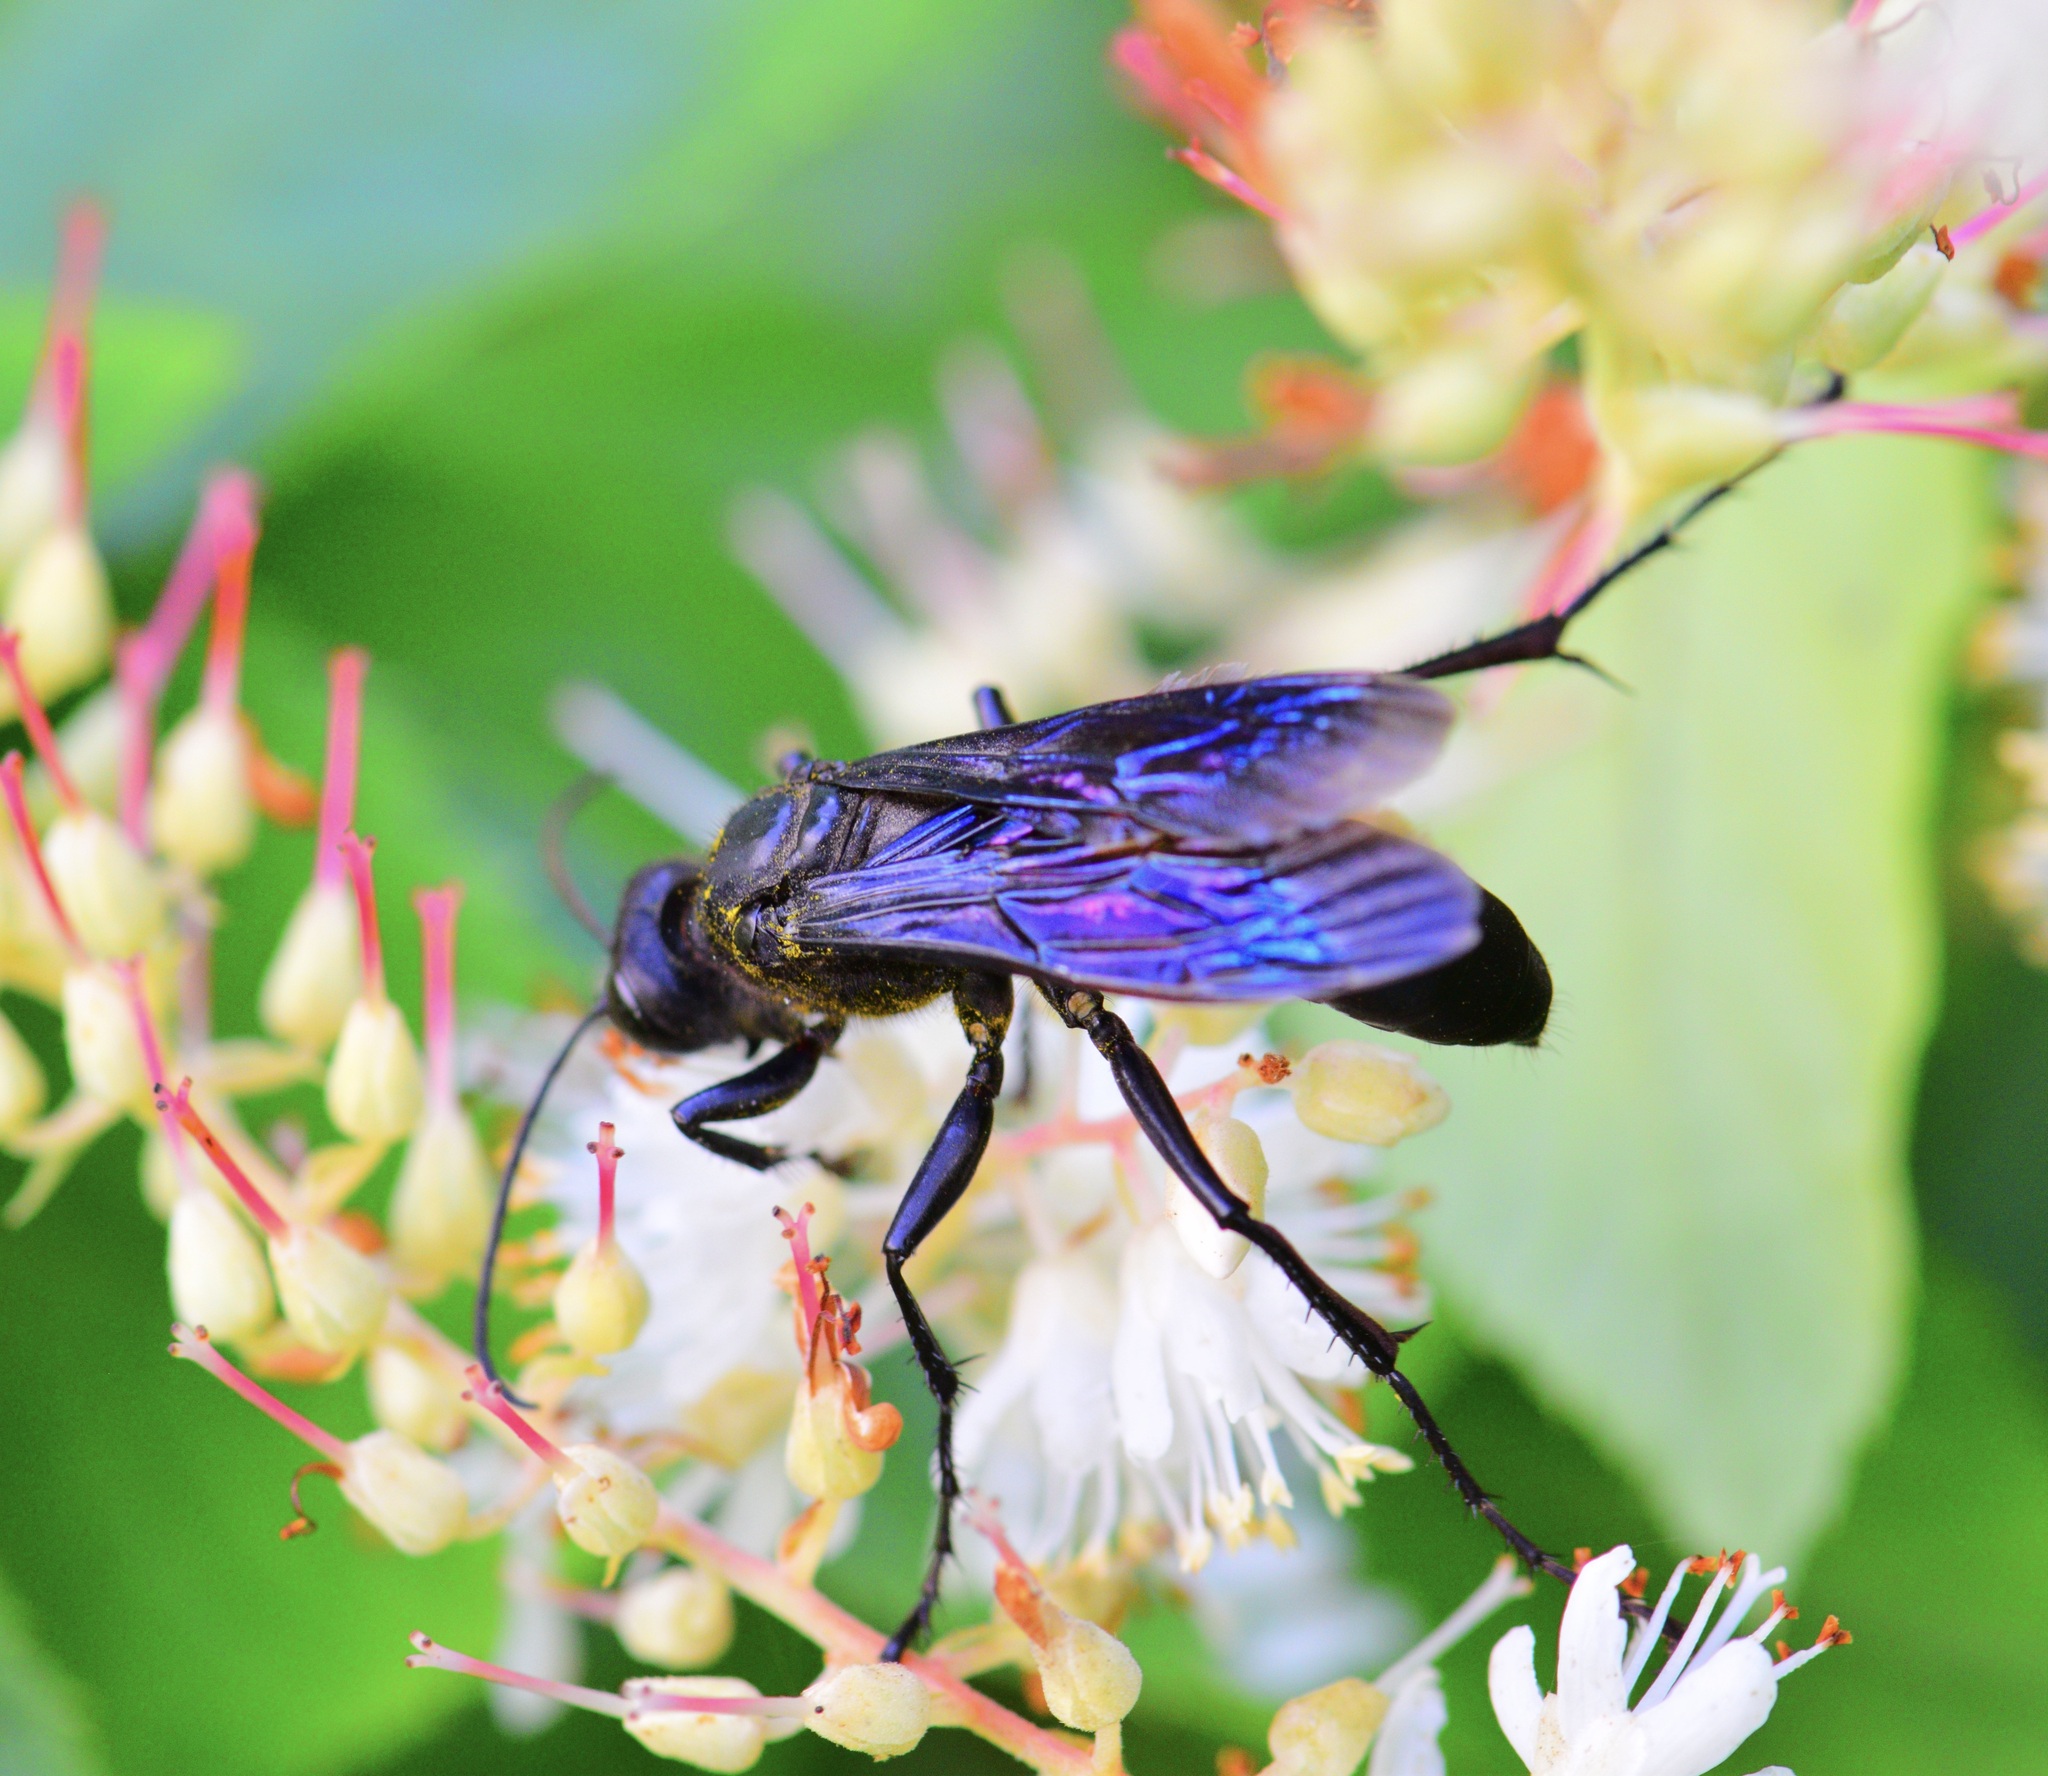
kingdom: Animalia
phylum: Arthropoda
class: Insecta
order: Hymenoptera
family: Sphecidae
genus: Sphex
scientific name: Sphex pensylvanicus
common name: Great black digger wasp
